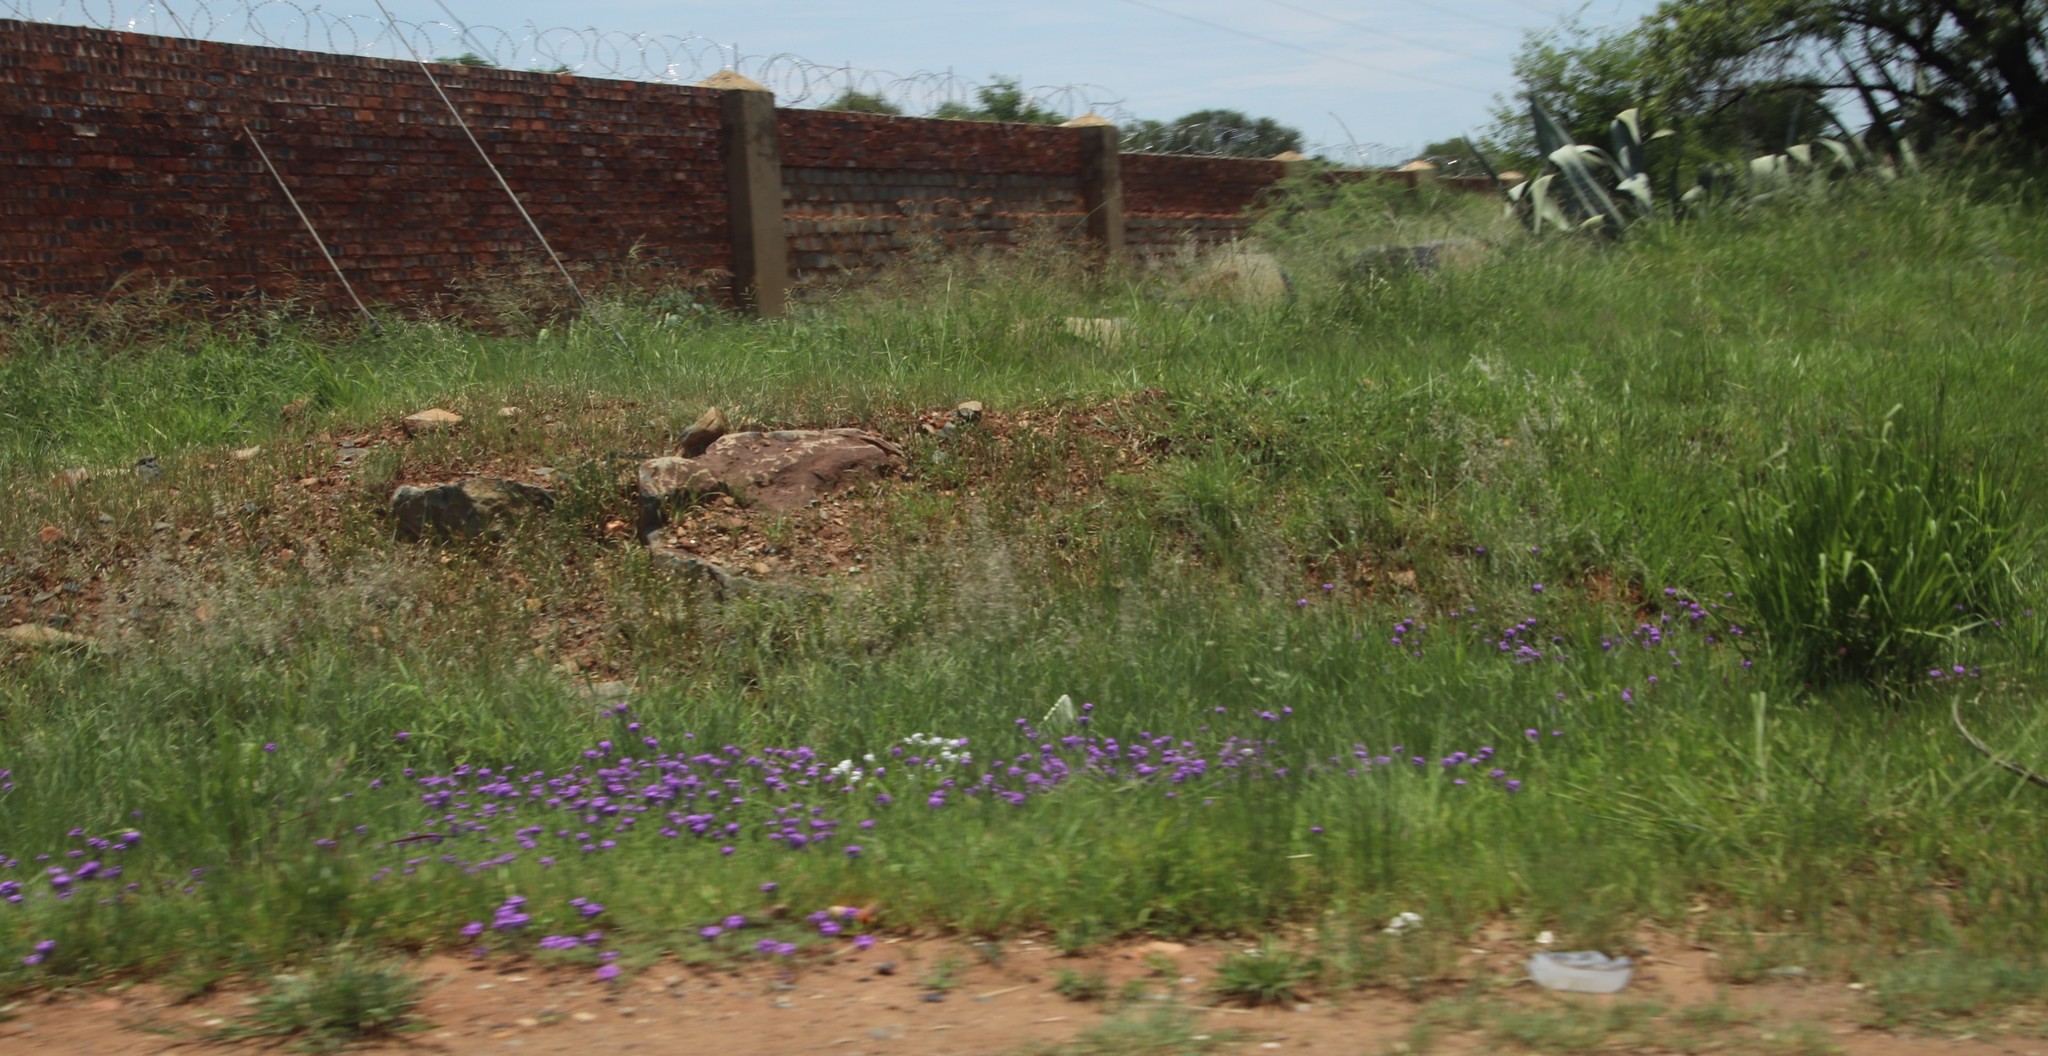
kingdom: Plantae
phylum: Tracheophyta
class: Magnoliopsida
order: Lamiales
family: Verbenaceae
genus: Verbena
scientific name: Verbena aristigera
